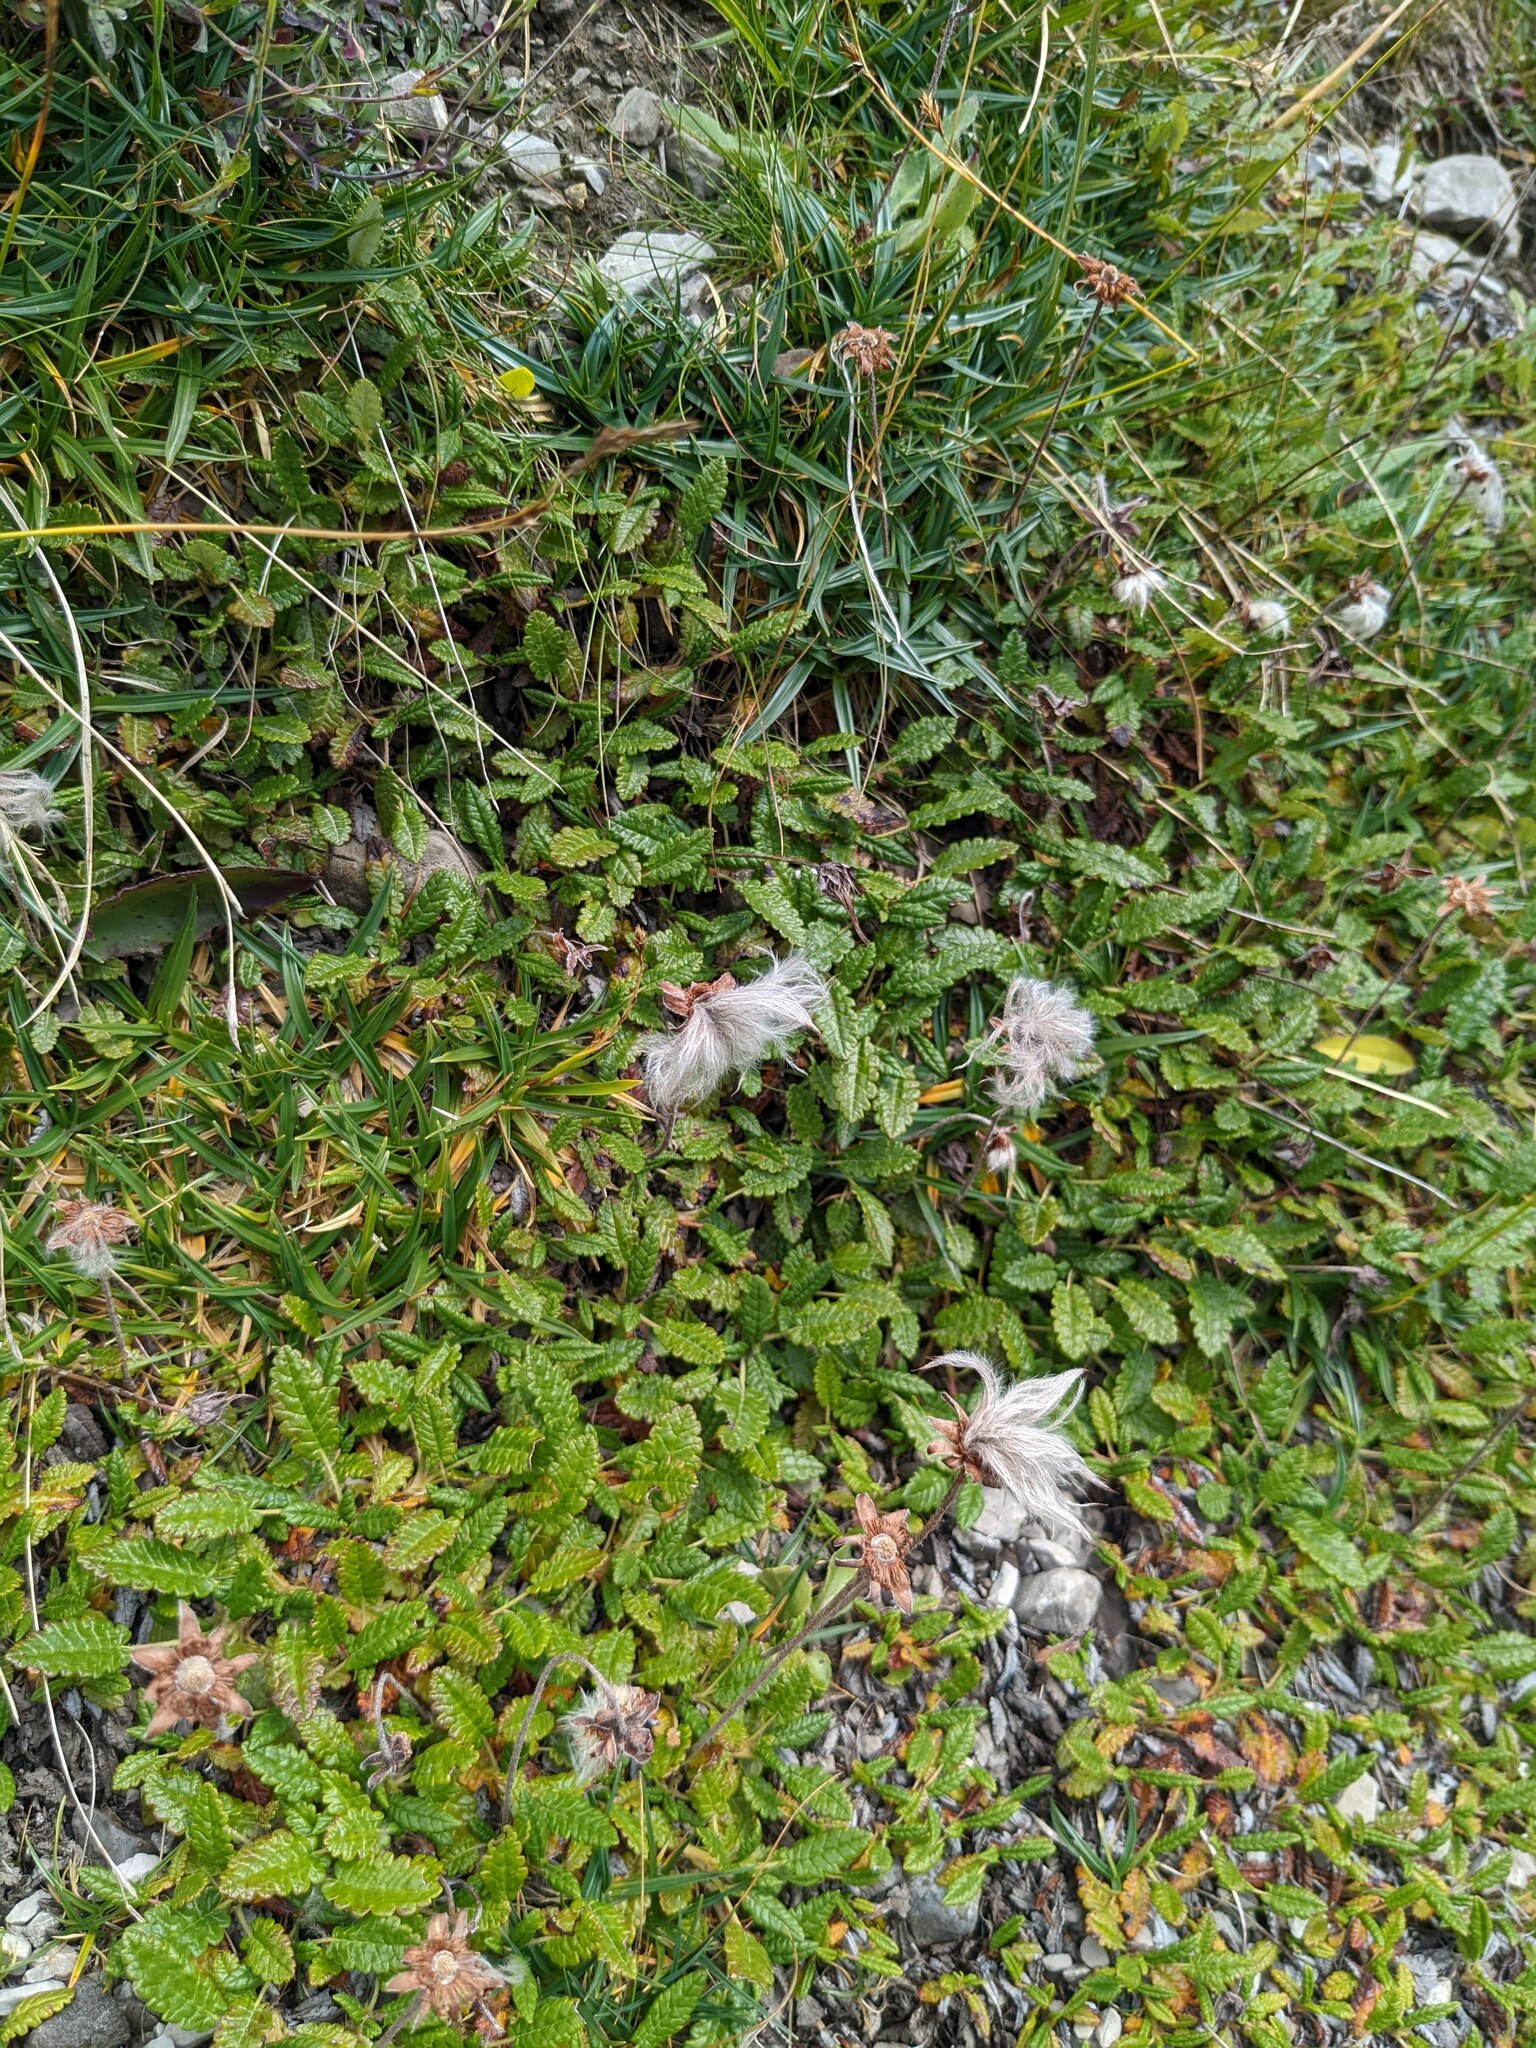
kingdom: Plantae
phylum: Tracheophyta
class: Magnoliopsida
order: Rosales
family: Rosaceae
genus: Dryas
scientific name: Dryas octopetala
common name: Eight-petal mountain-avens
